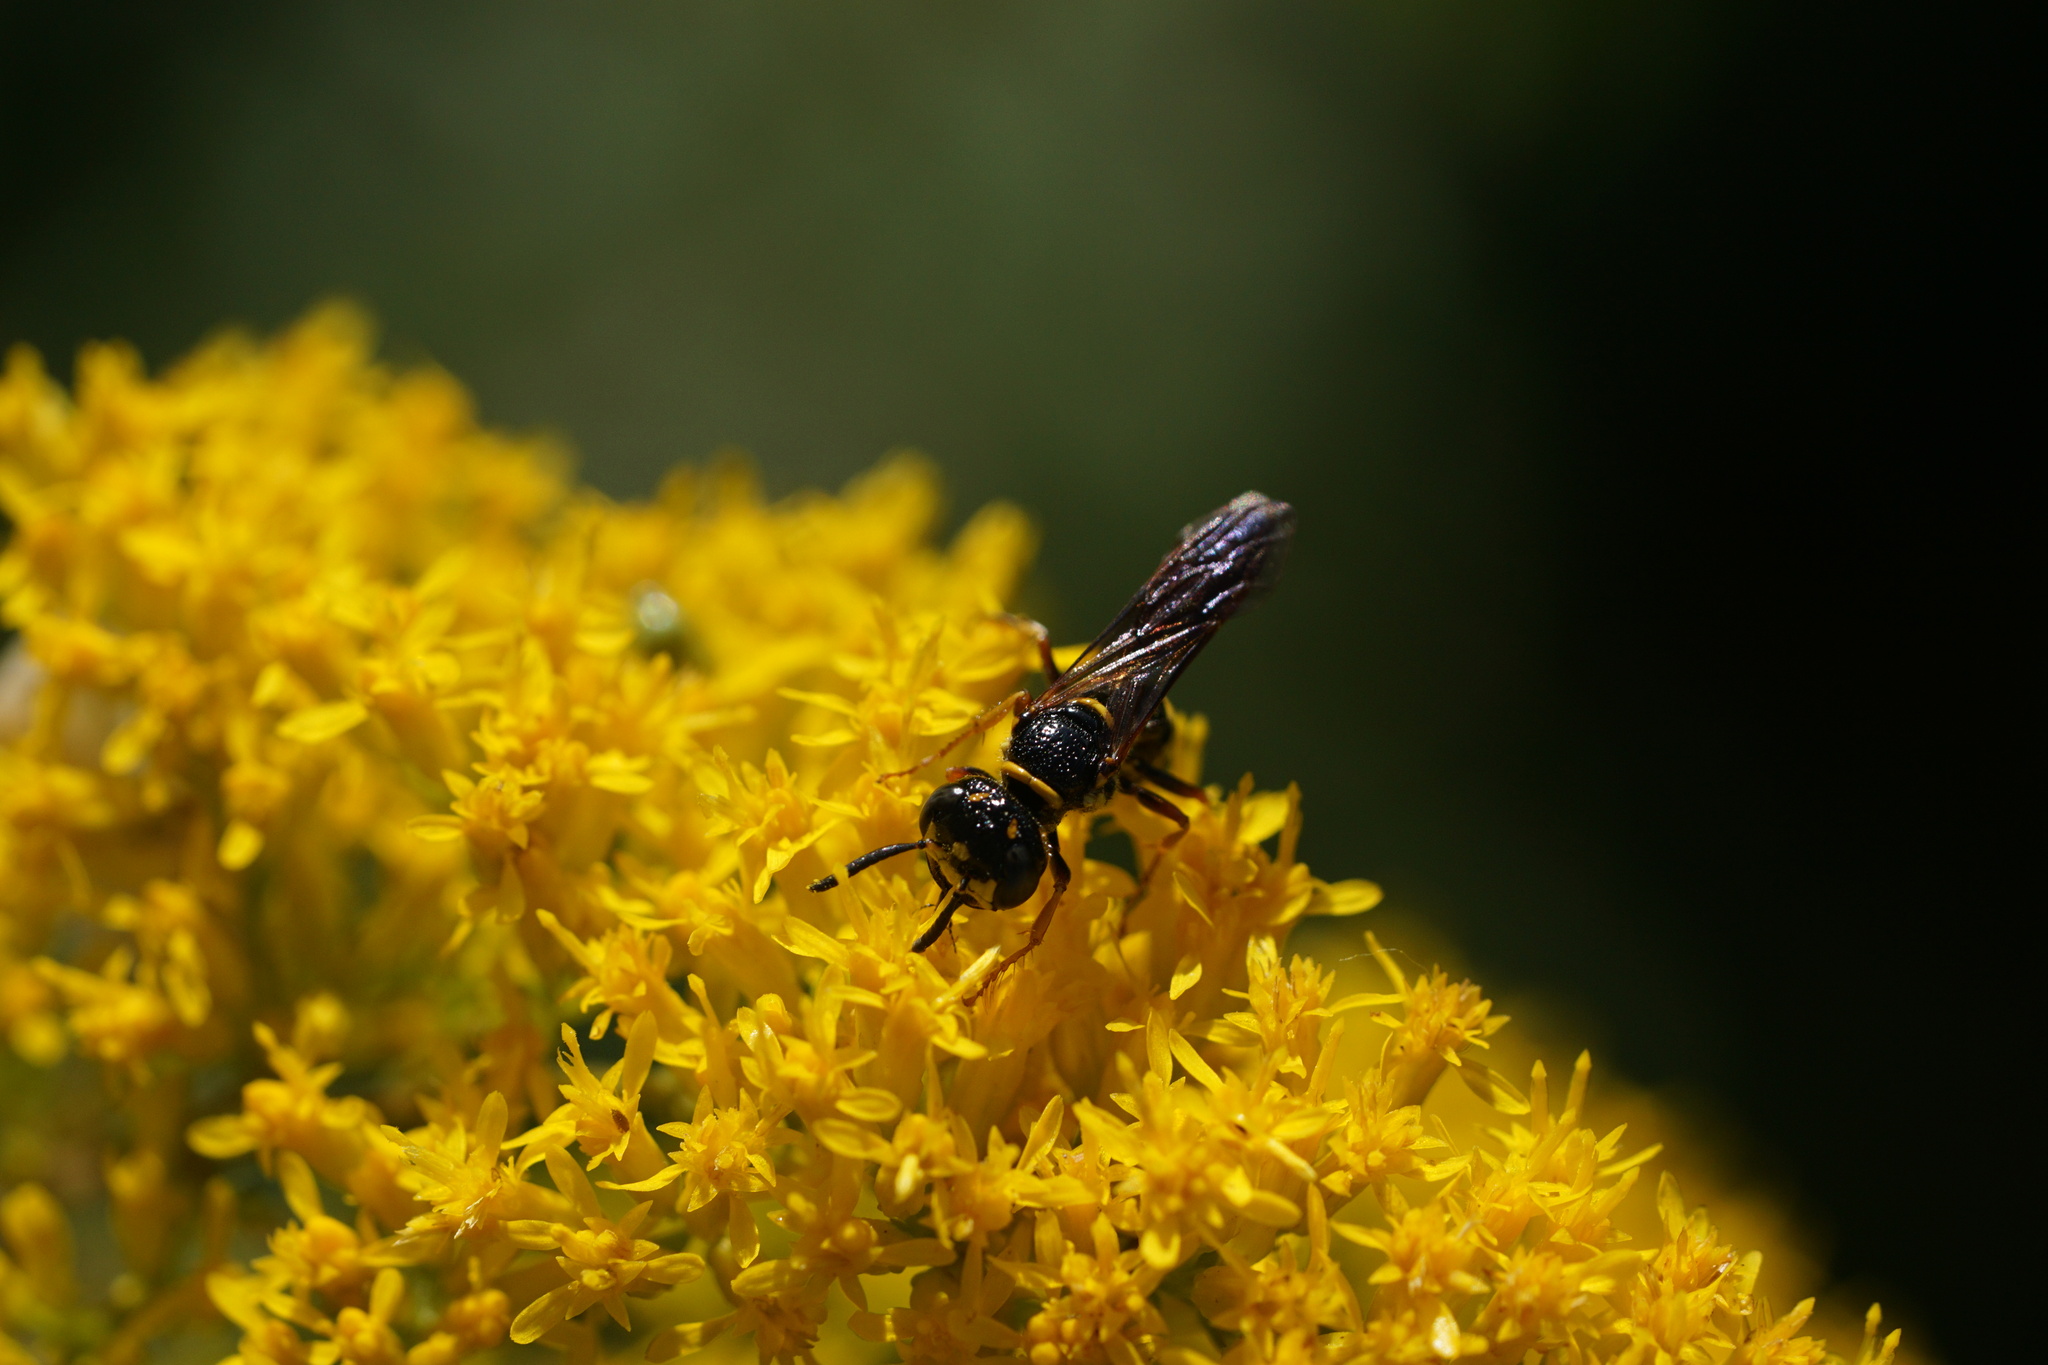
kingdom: Animalia
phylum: Arthropoda
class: Insecta
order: Hymenoptera
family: Crabronidae
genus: Philanthus
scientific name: Philanthus gibbosus
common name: Humped beewolf
